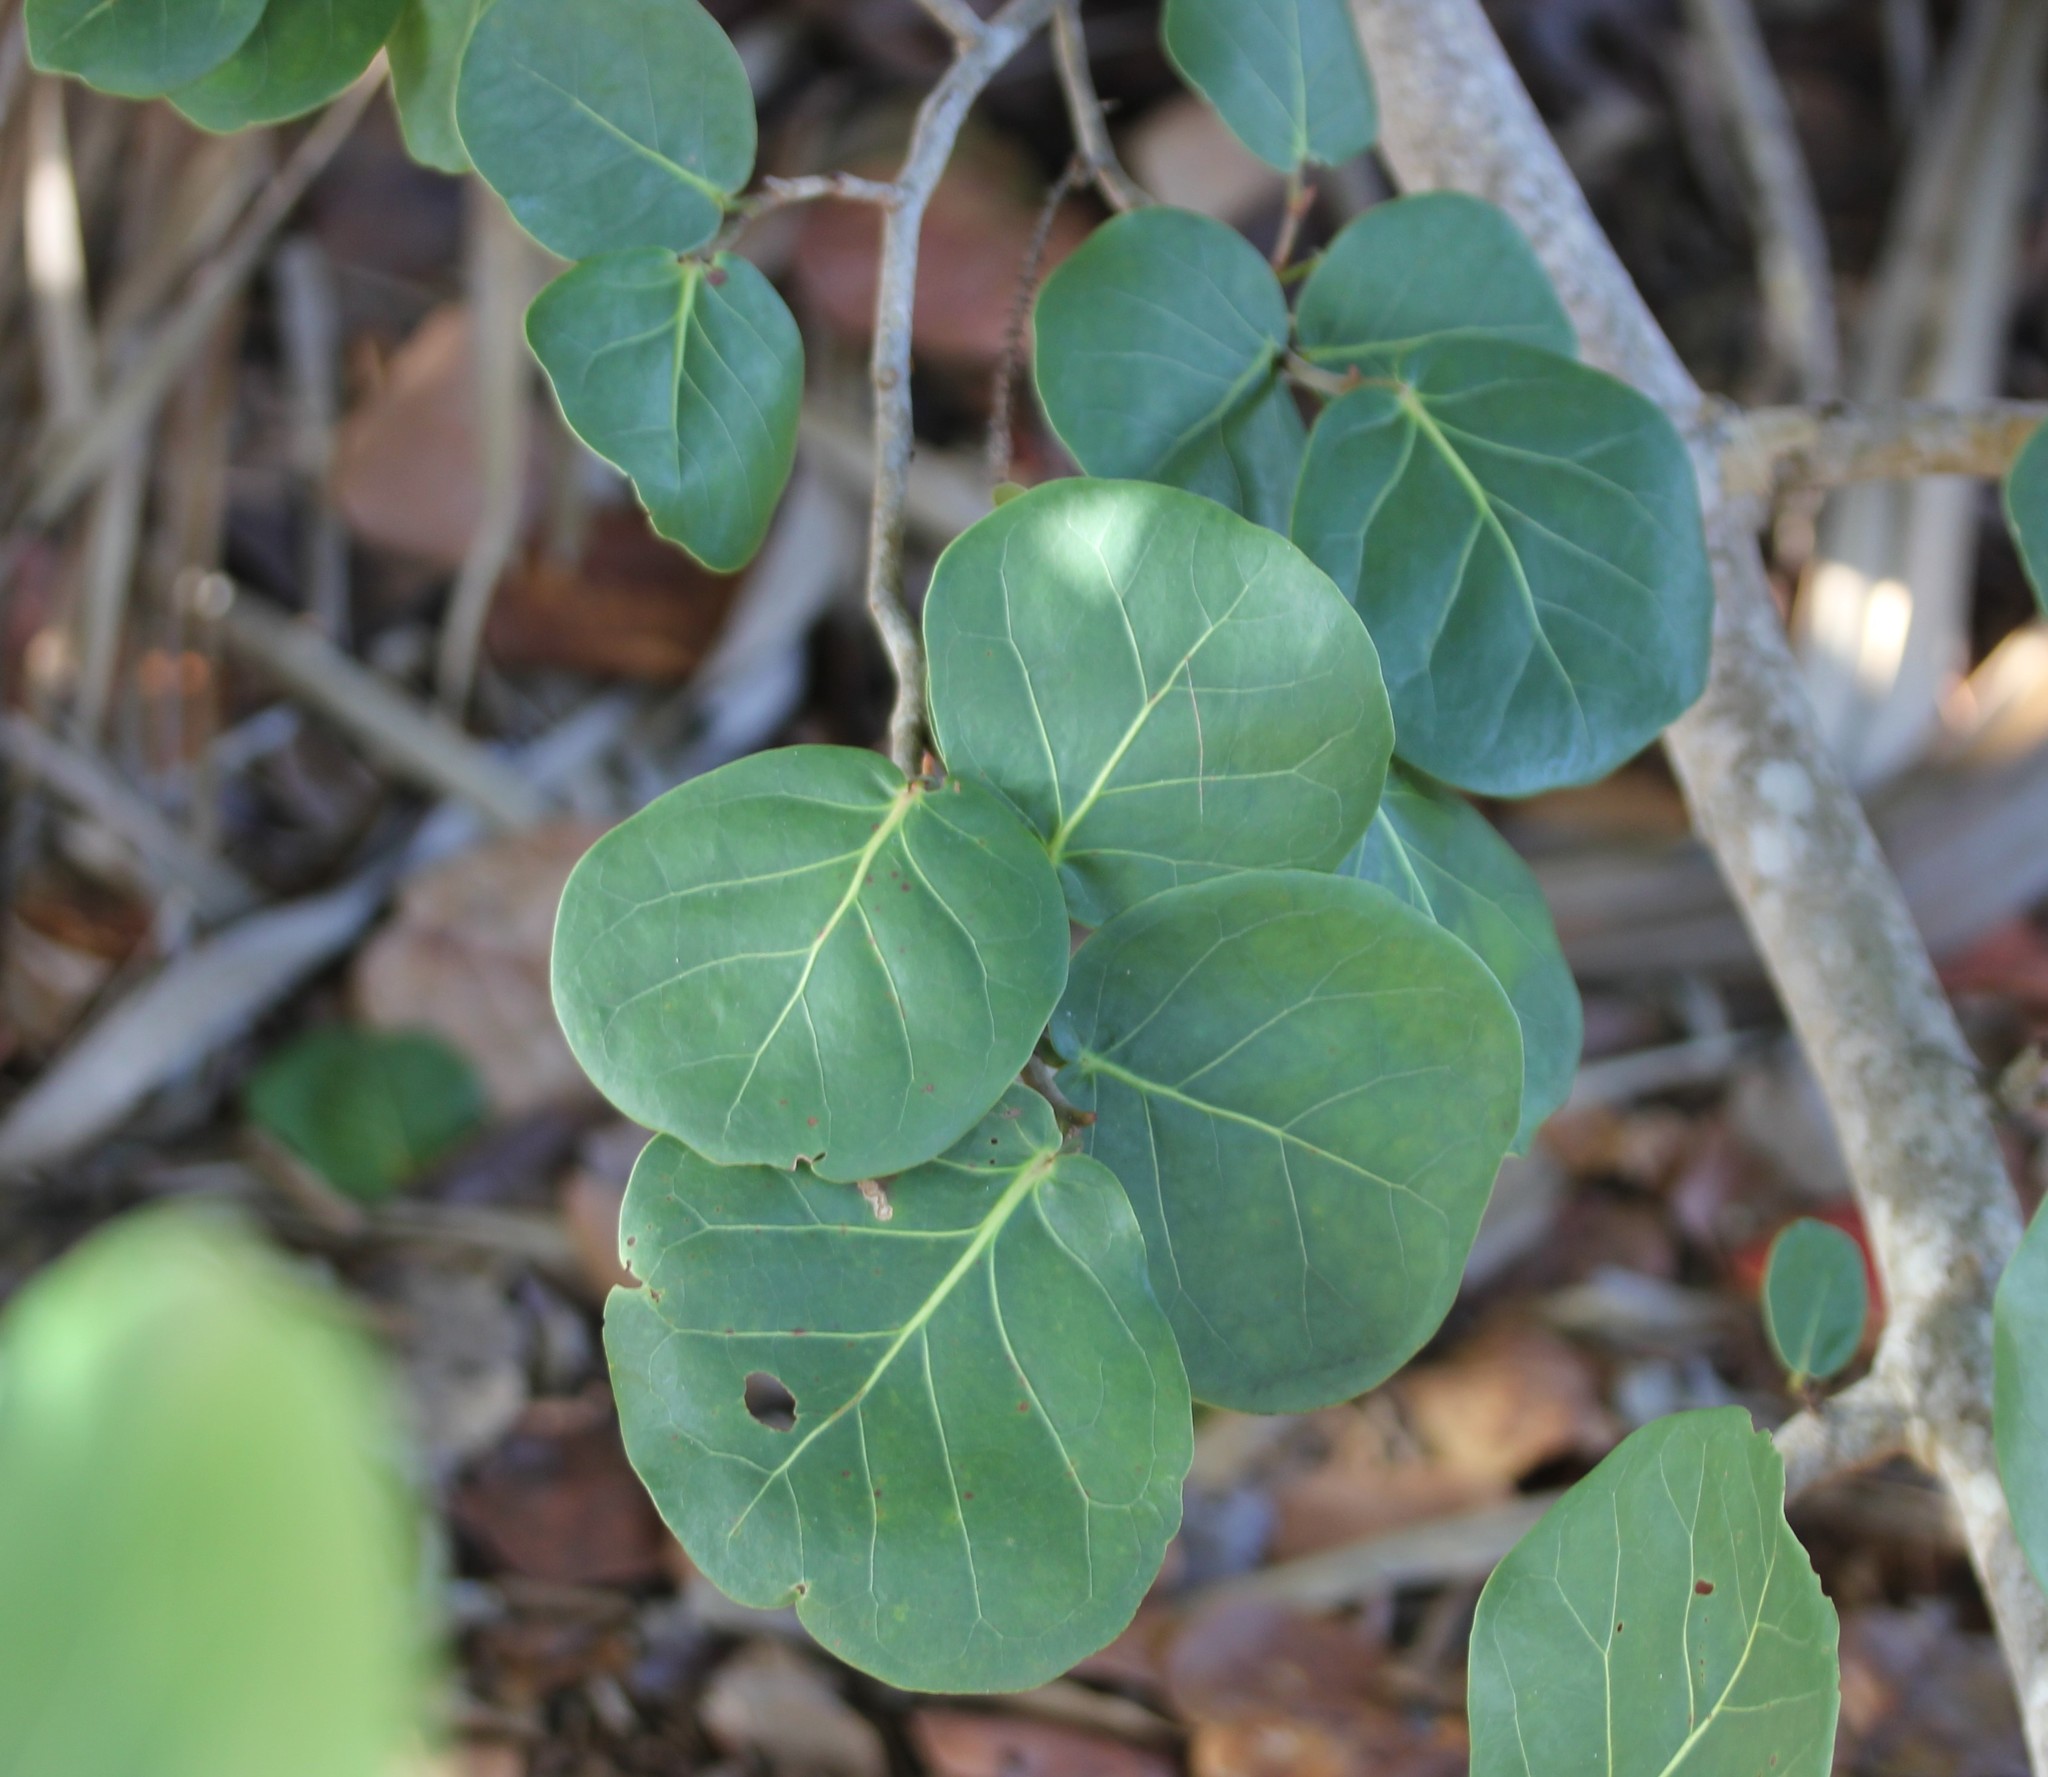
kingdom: Plantae
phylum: Tracheophyta
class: Magnoliopsida
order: Caryophyllales
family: Polygonaceae
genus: Coccoloba
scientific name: Coccoloba uvifera
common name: Seagrape
